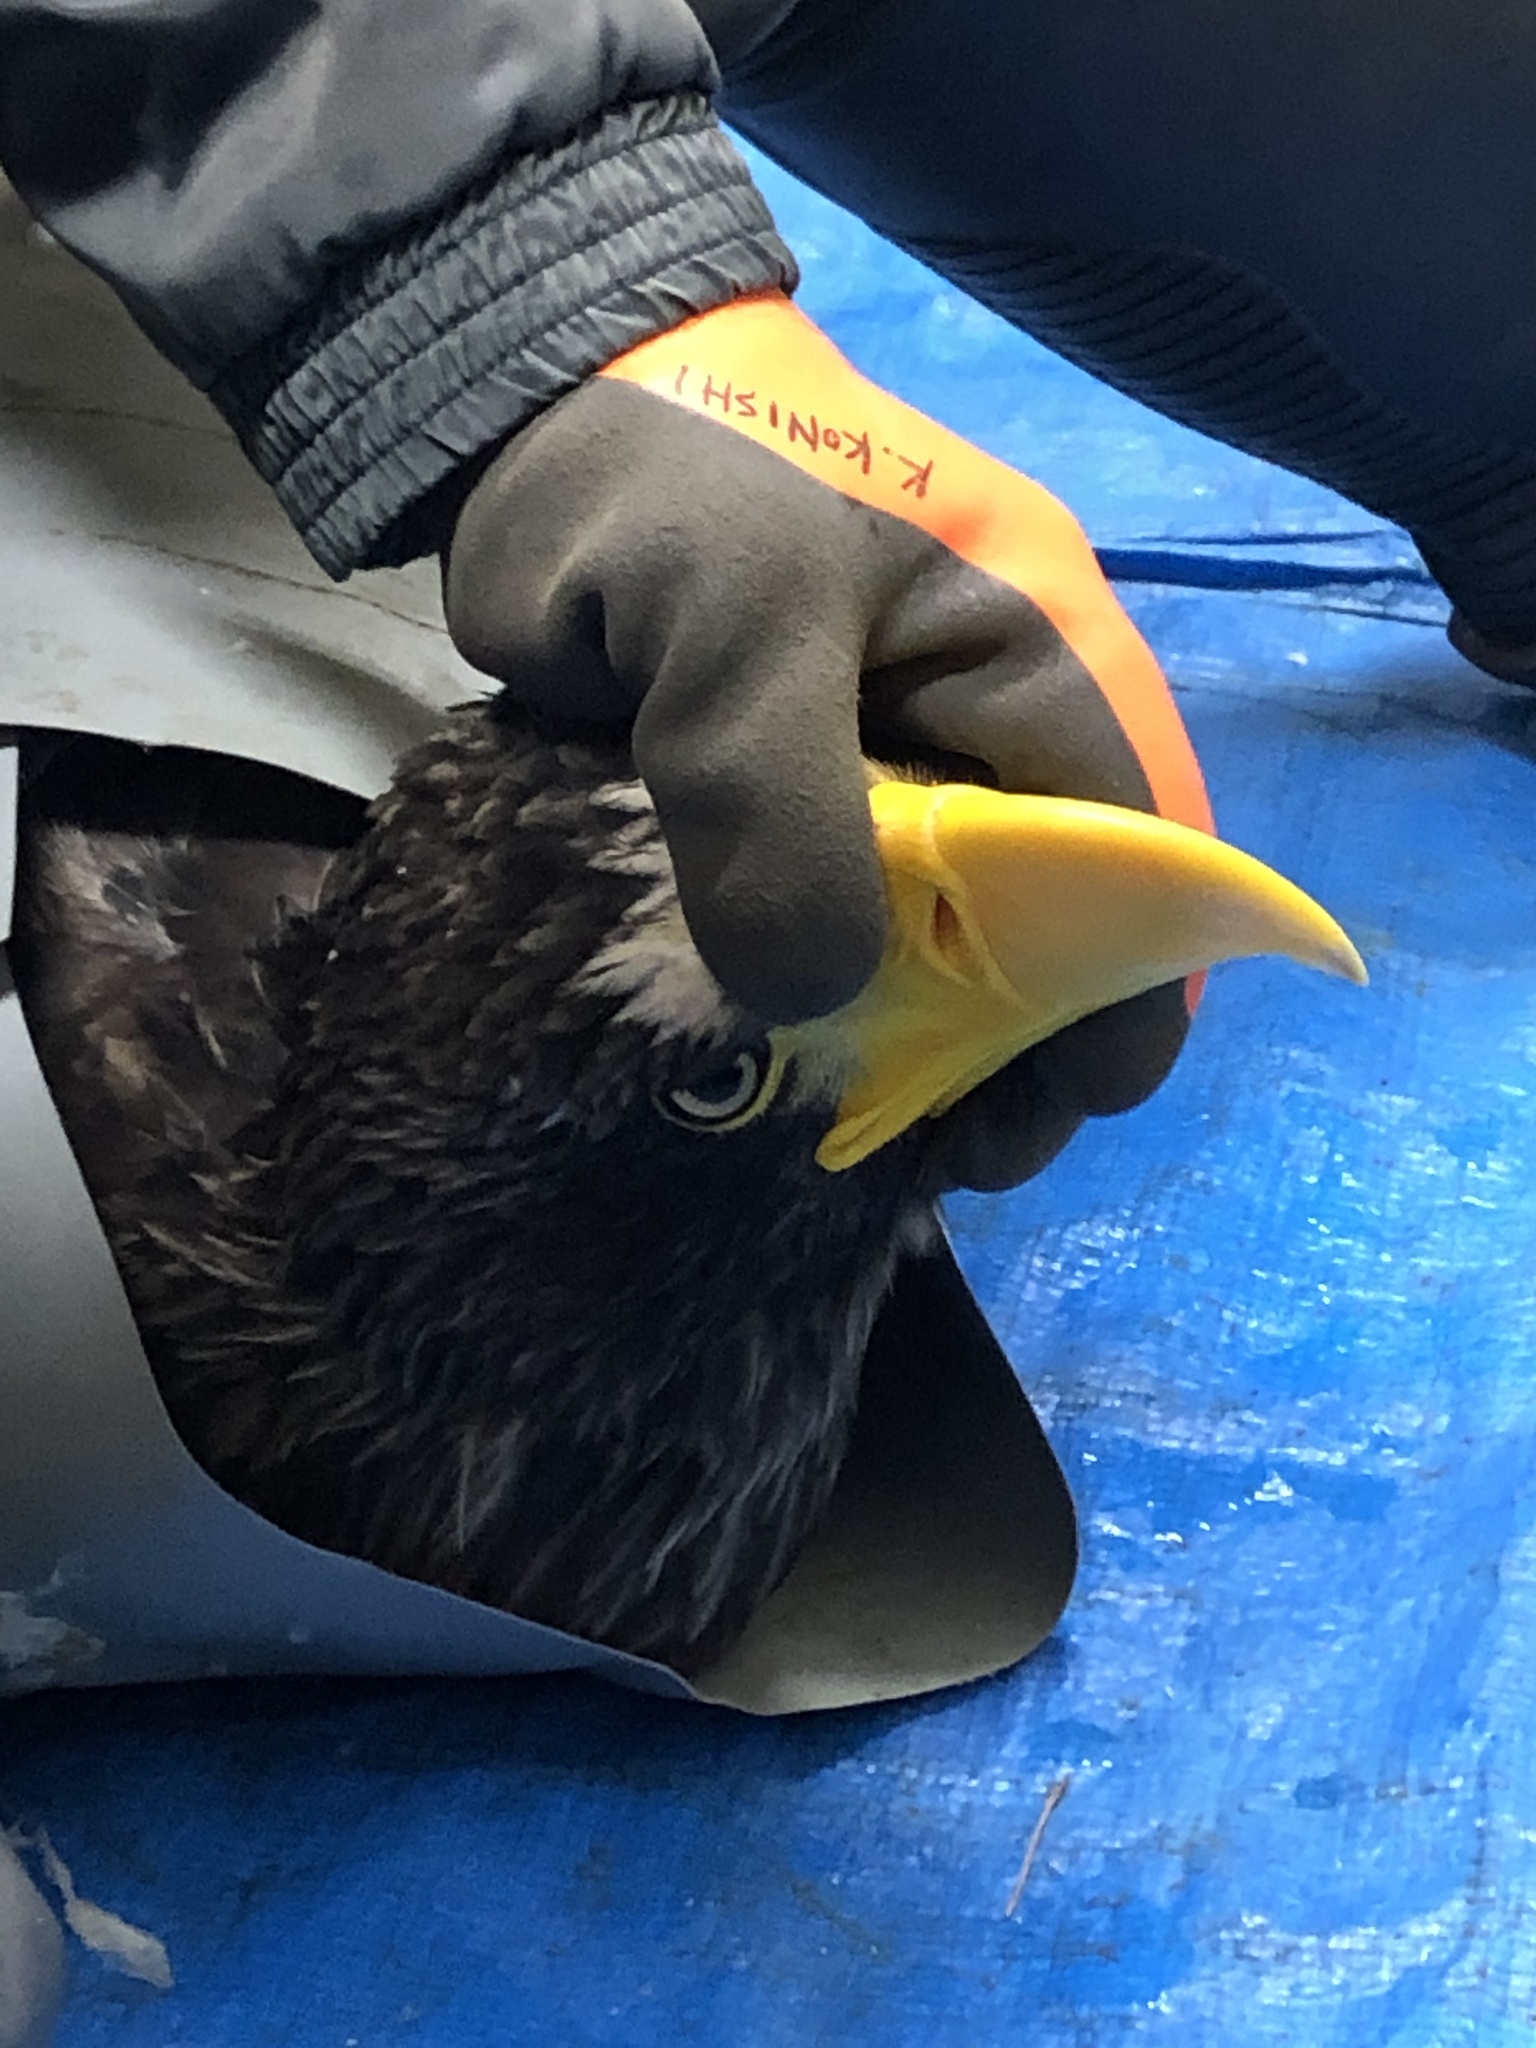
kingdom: Animalia
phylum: Chordata
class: Aves
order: Accipitriformes
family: Accipitridae
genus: Haliaeetus
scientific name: Haliaeetus pelagicus
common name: Steller's sea eagle
